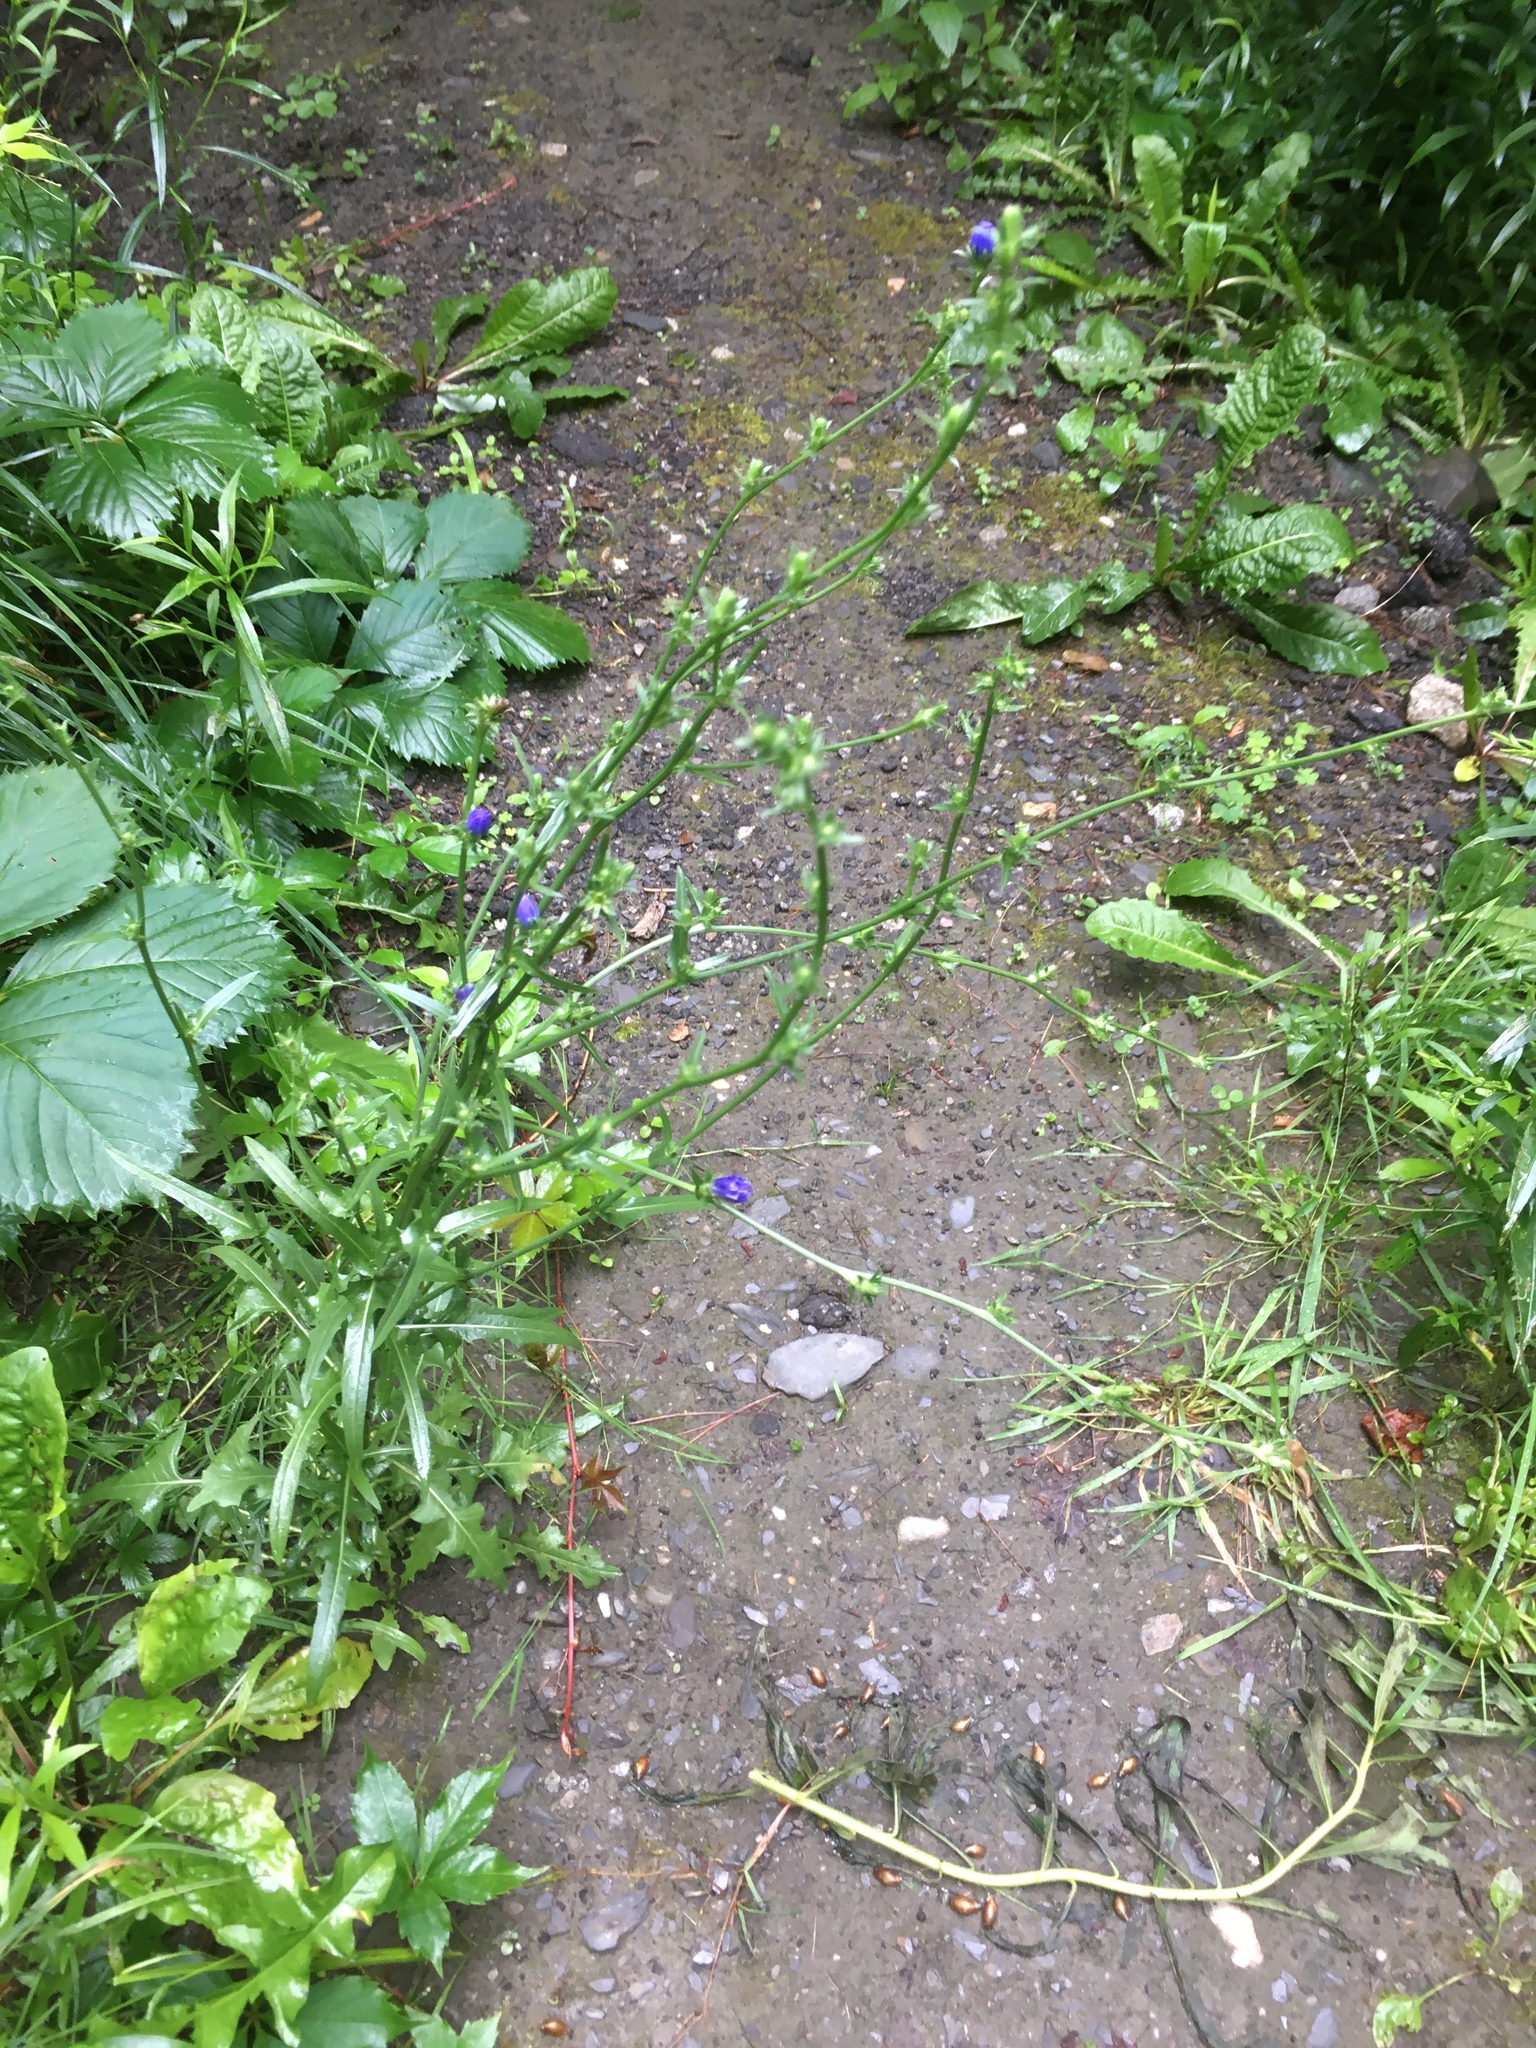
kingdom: Plantae
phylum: Tracheophyta
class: Magnoliopsida
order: Asterales
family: Asteraceae
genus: Cichorium
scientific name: Cichorium intybus
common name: Chicory
